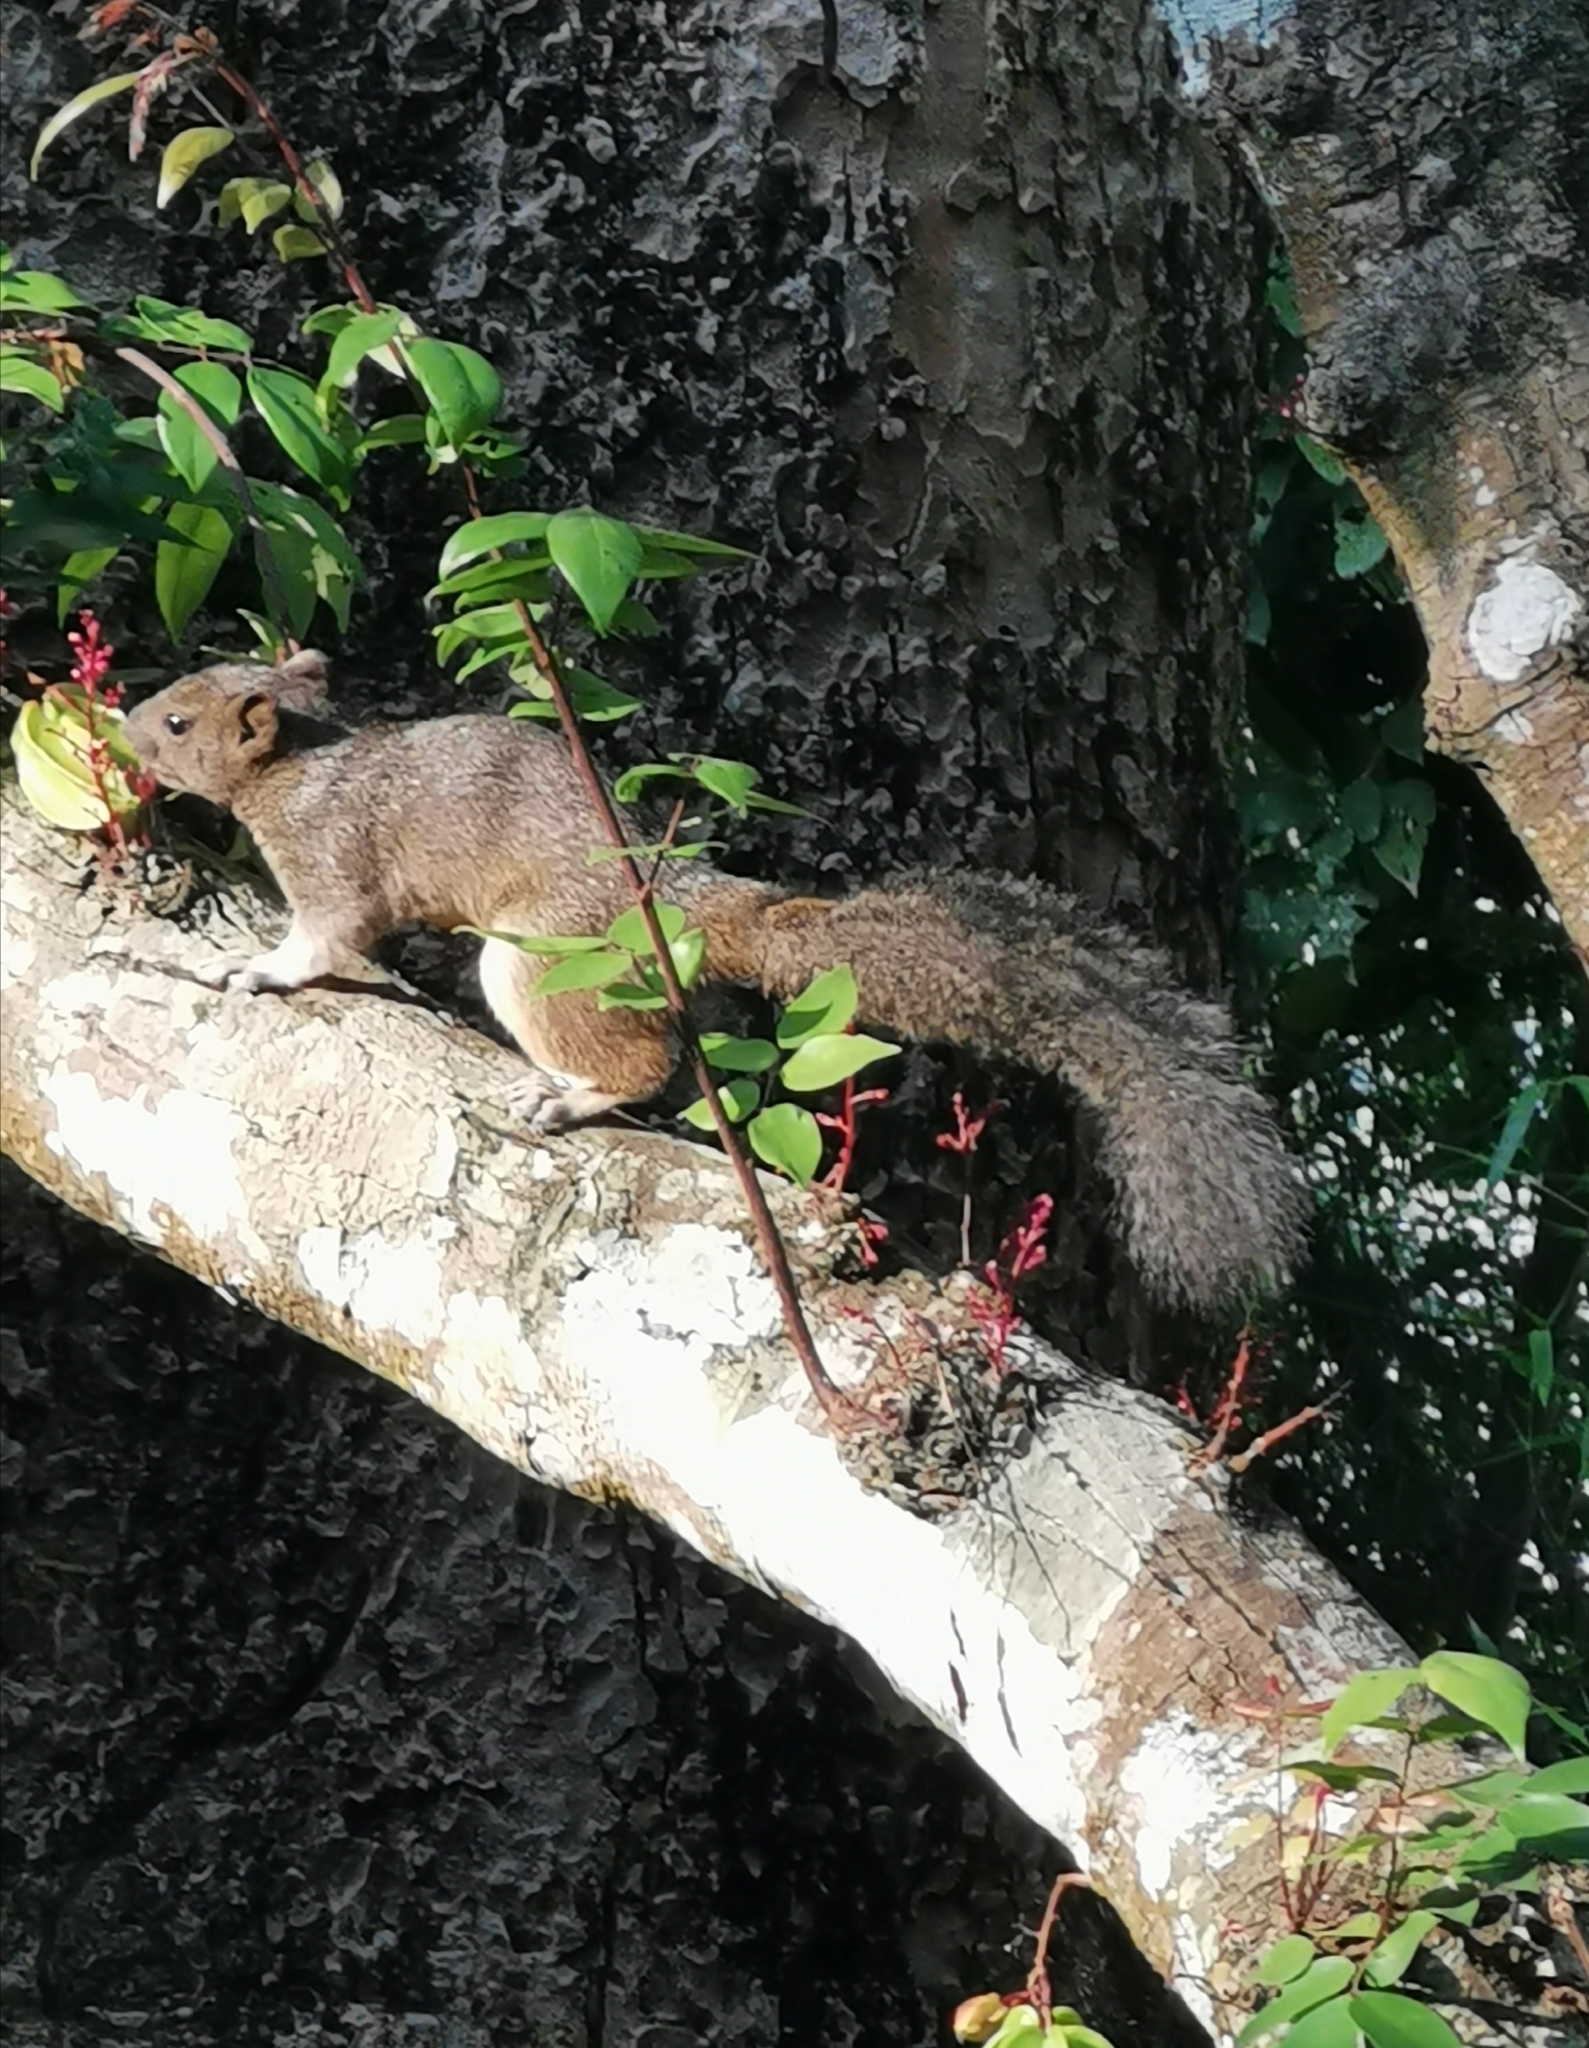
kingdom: Animalia
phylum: Chordata
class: Mammalia
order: Rodentia
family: Sciuridae
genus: Callosciurus
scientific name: Callosciurus erythraeus
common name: Pallas's squirrel
